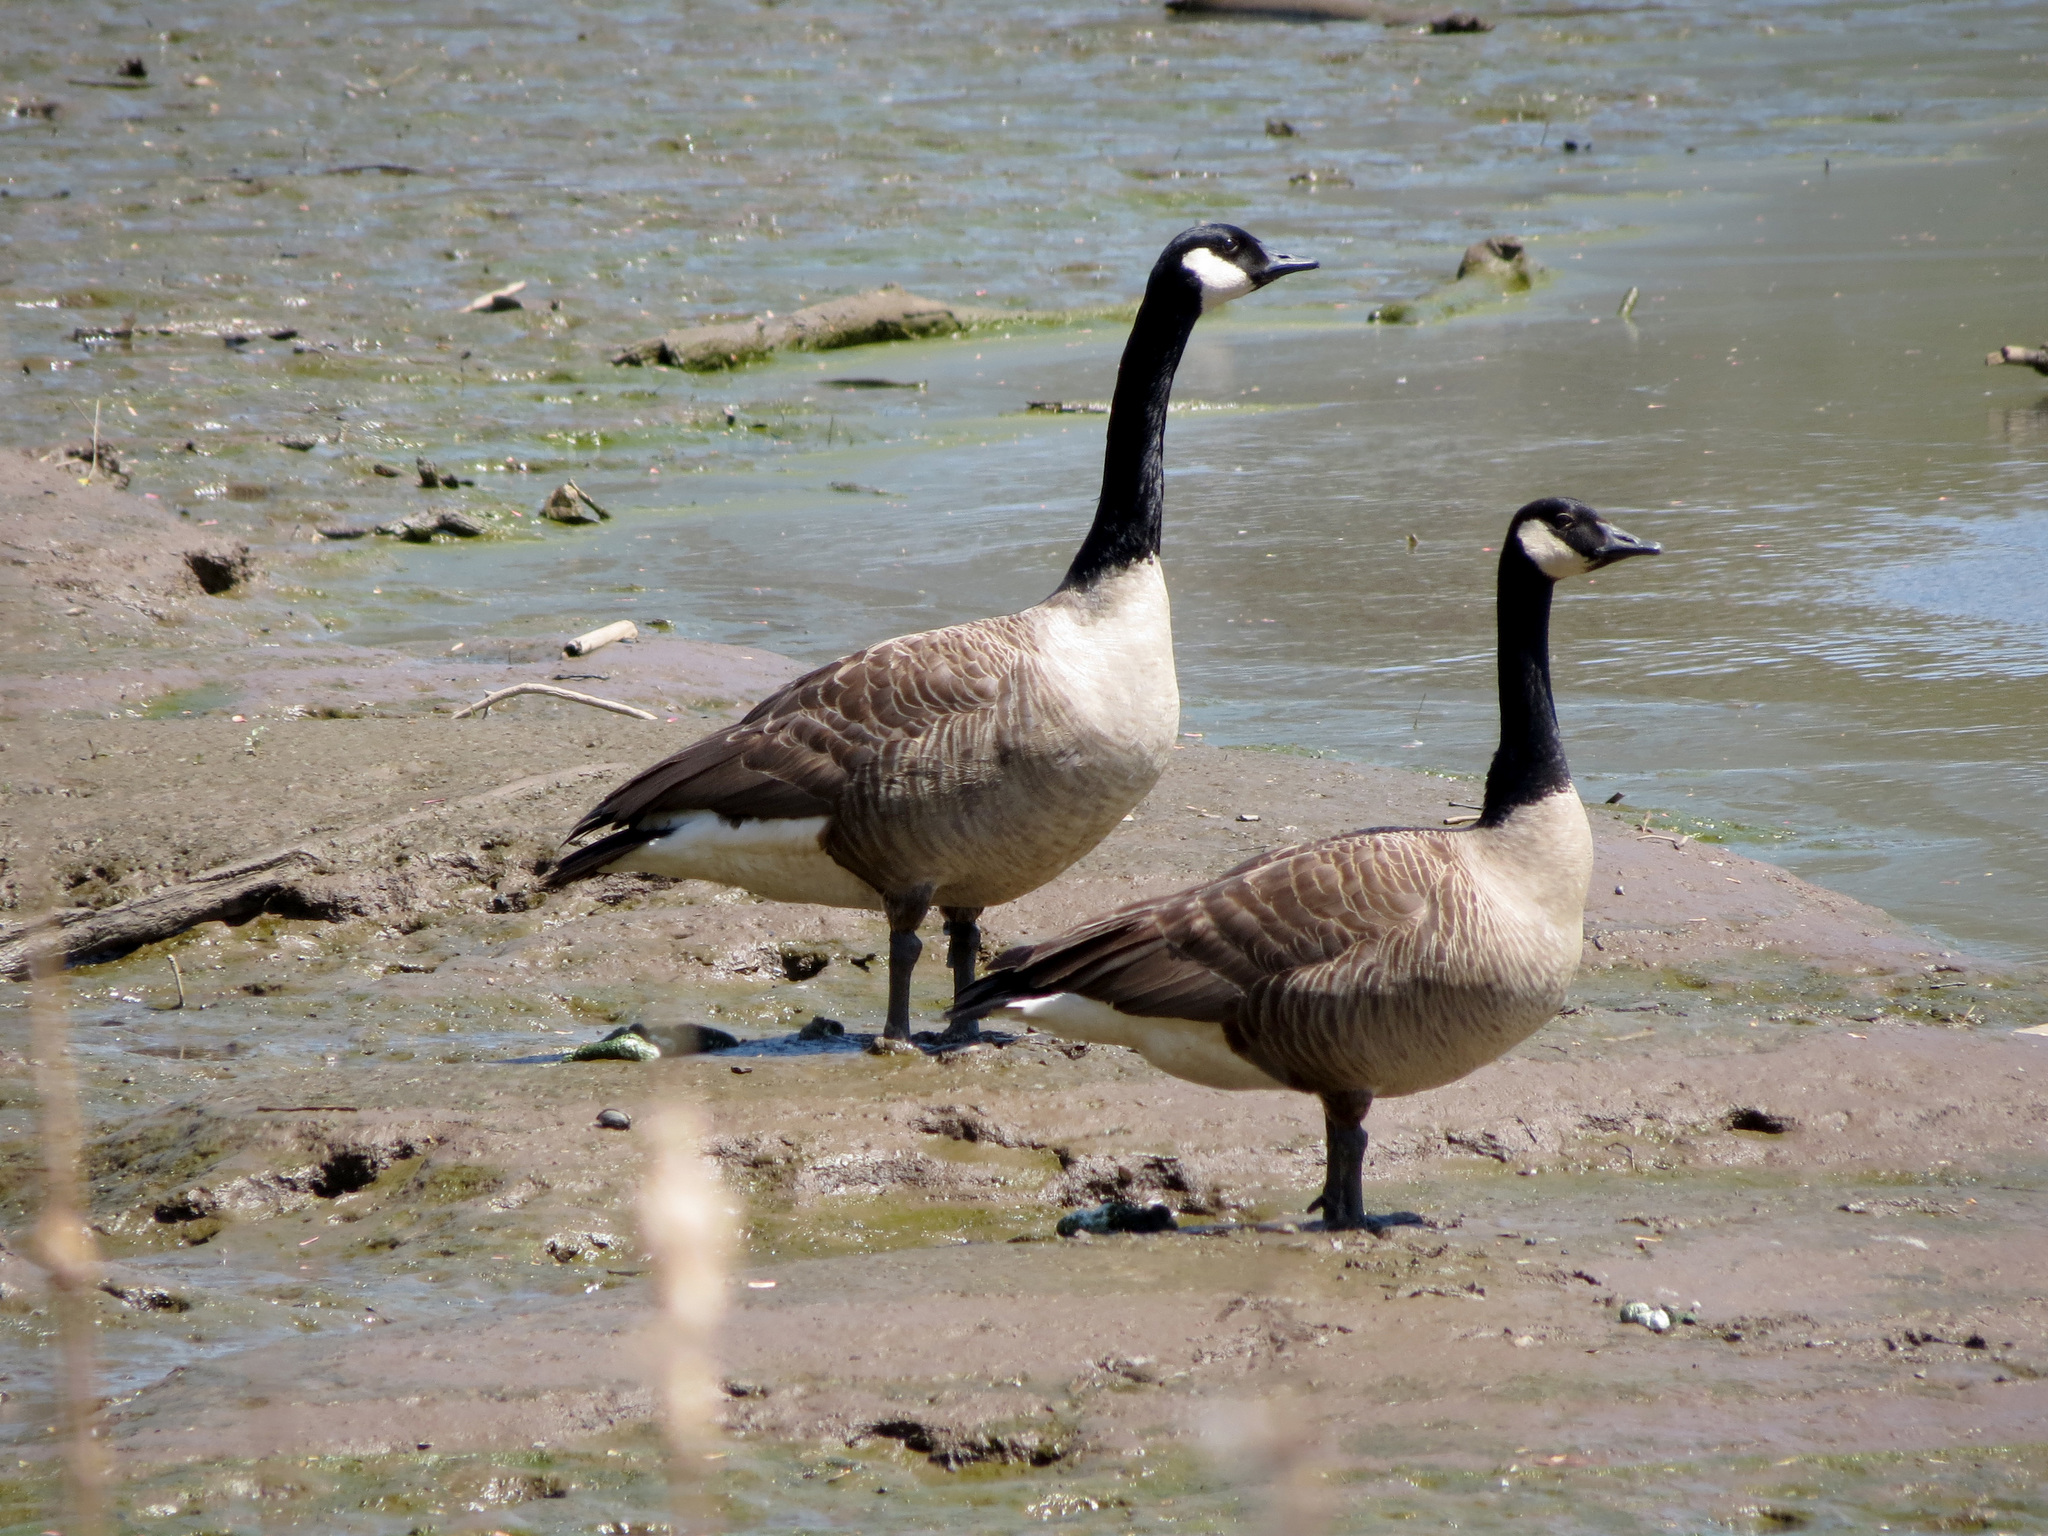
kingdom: Animalia
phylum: Chordata
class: Aves
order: Anseriformes
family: Anatidae
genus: Branta
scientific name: Branta canadensis
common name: Canada goose
